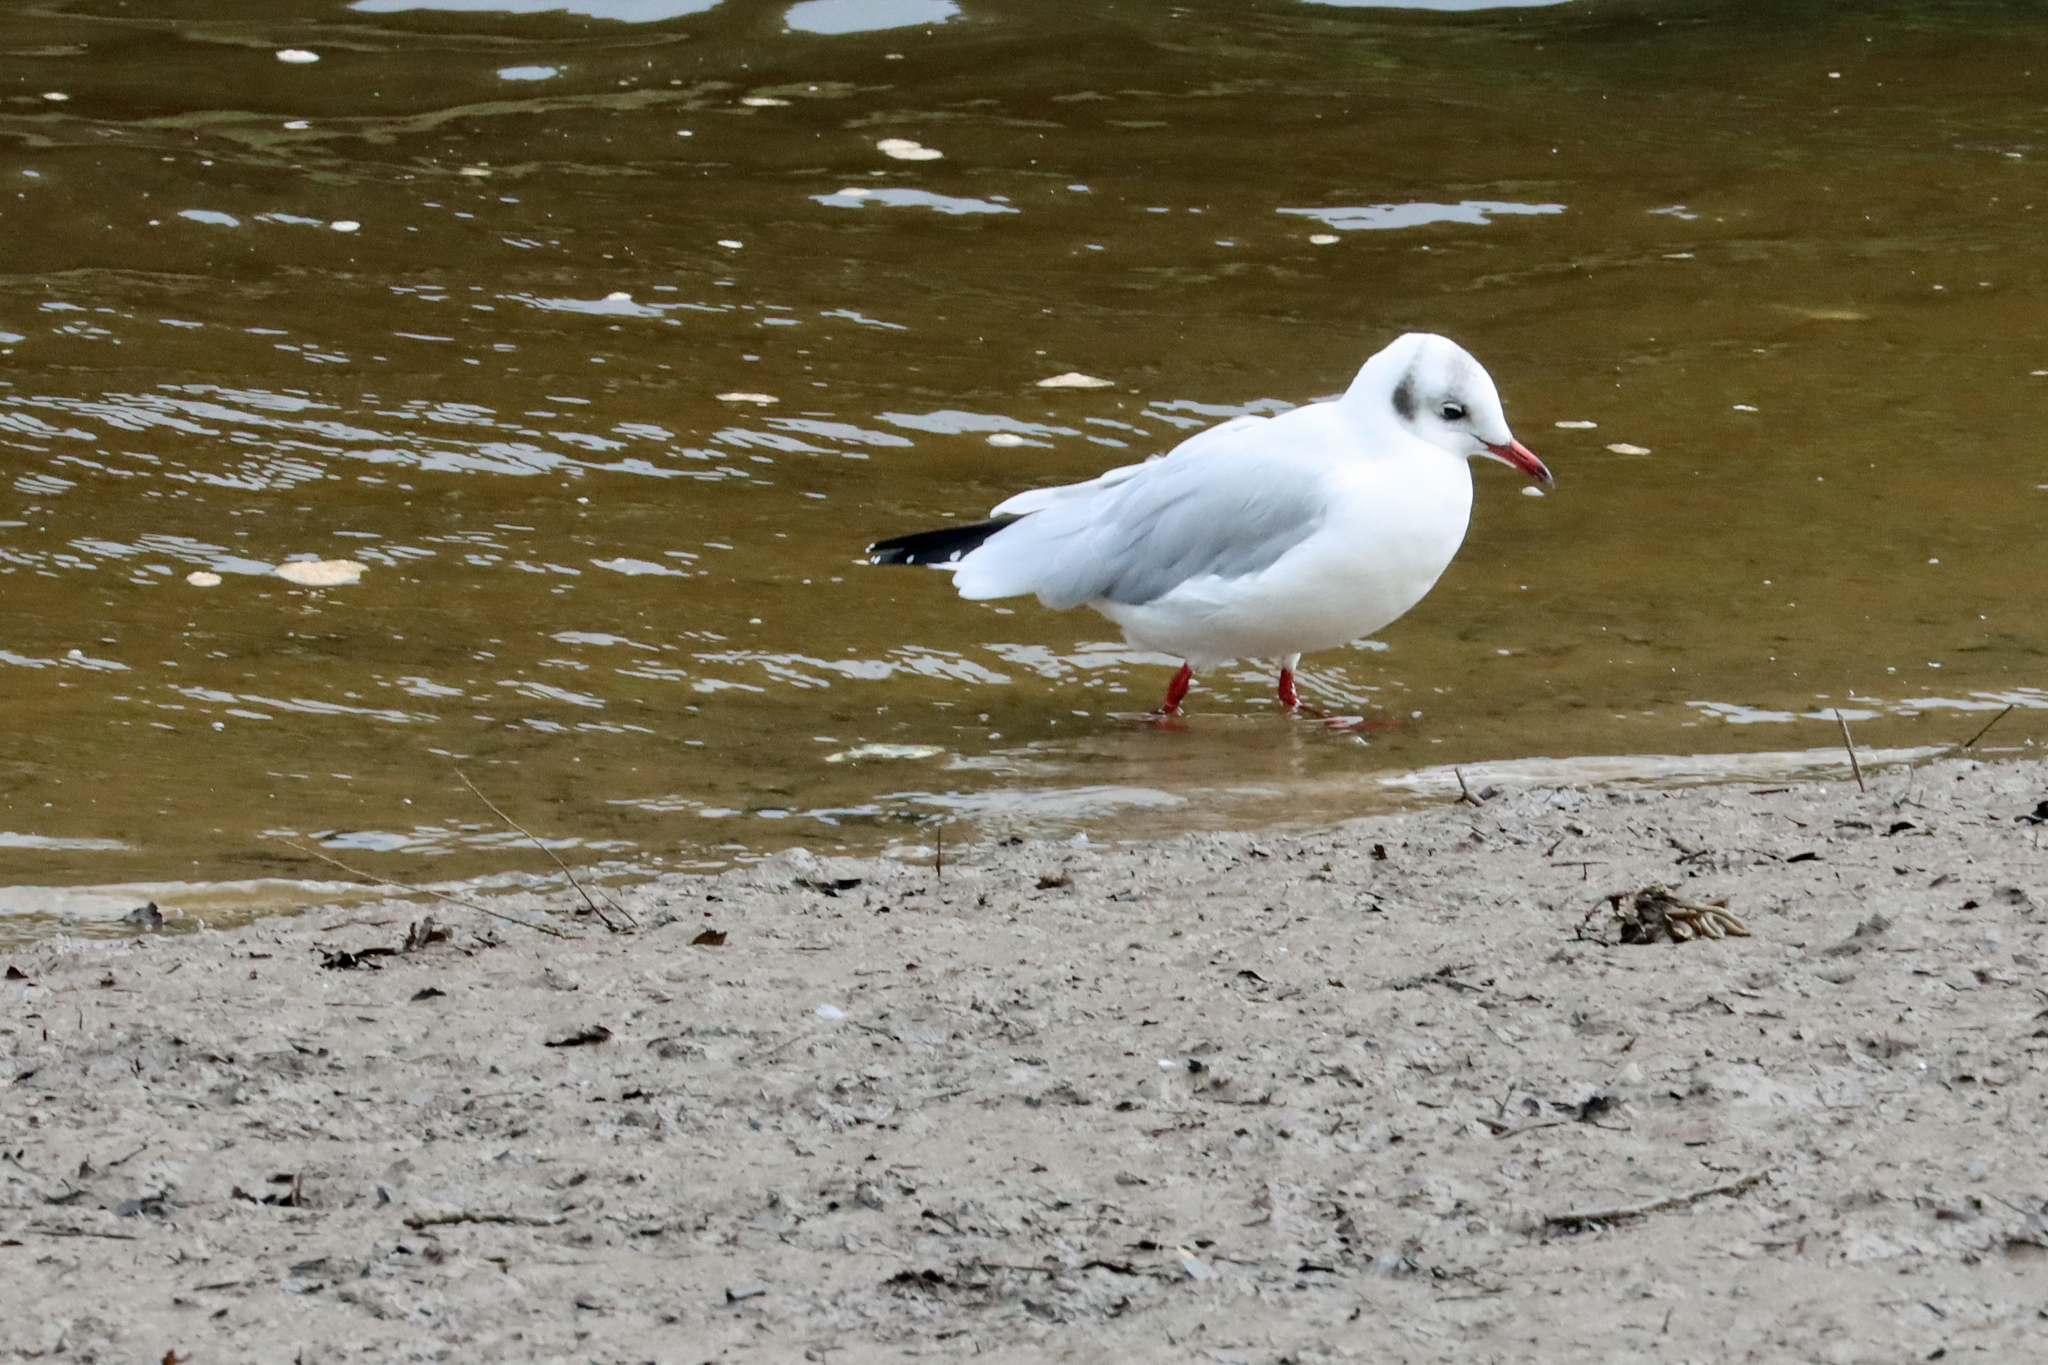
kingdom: Animalia
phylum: Chordata
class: Aves
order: Charadriiformes
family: Laridae
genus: Chroicocephalus
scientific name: Chroicocephalus ridibundus
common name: Black-headed gull
